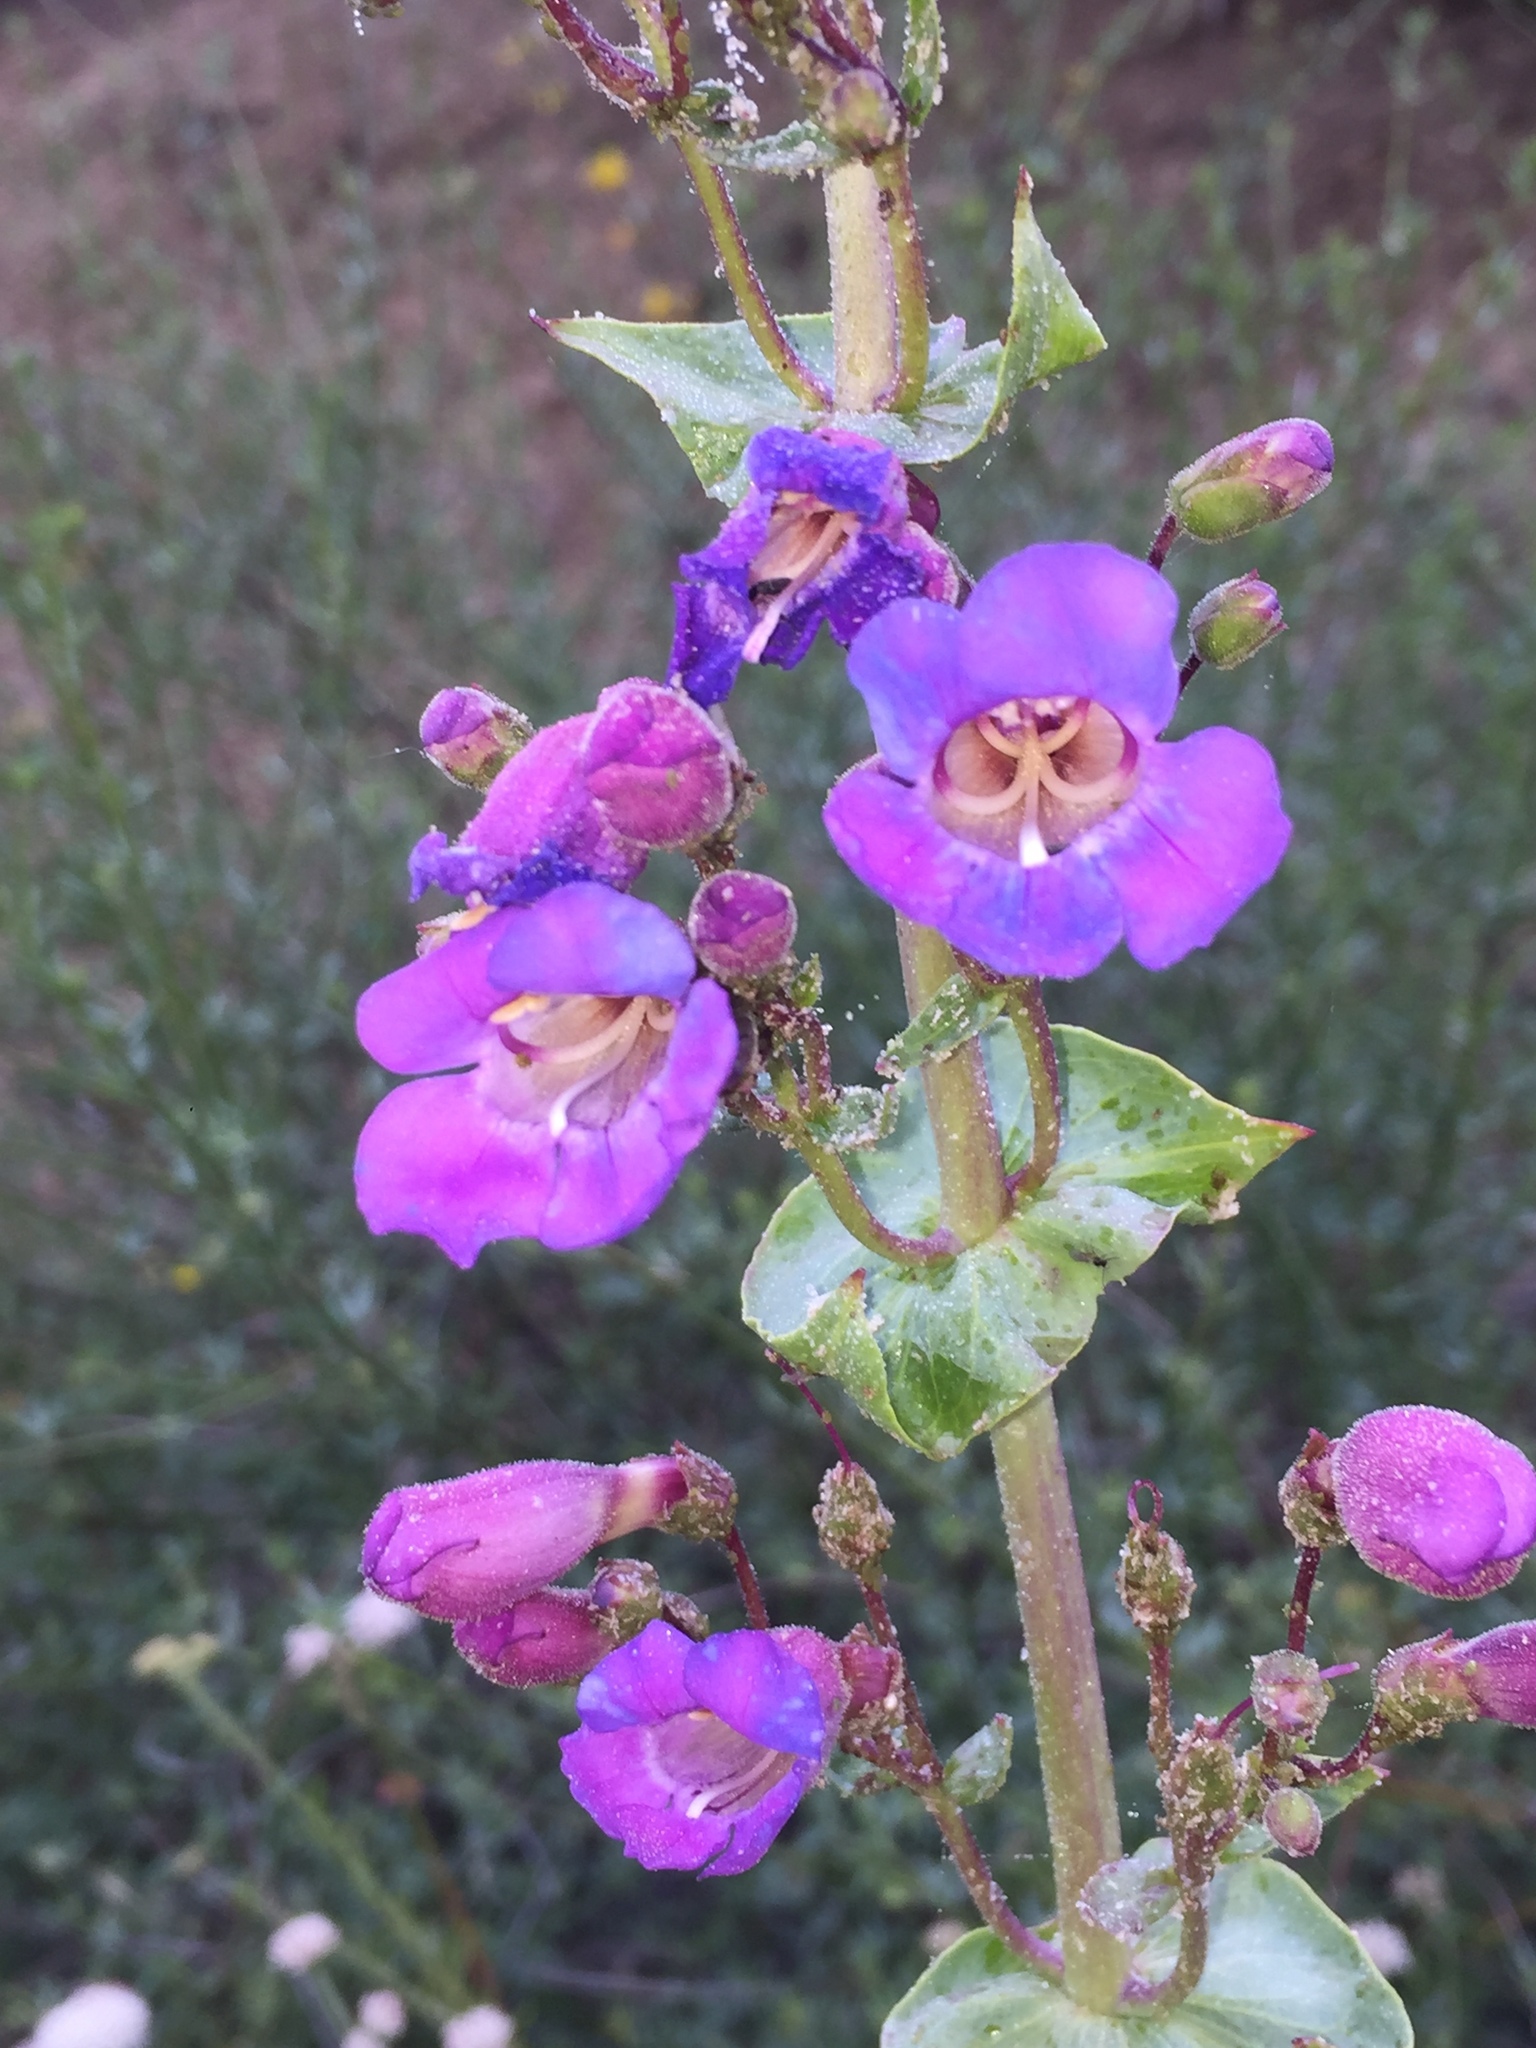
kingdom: Plantae
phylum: Tracheophyta
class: Magnoliopsida
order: Lamiales
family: Plantaginaceae
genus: Penstemon
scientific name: Penstemon spectabilis
